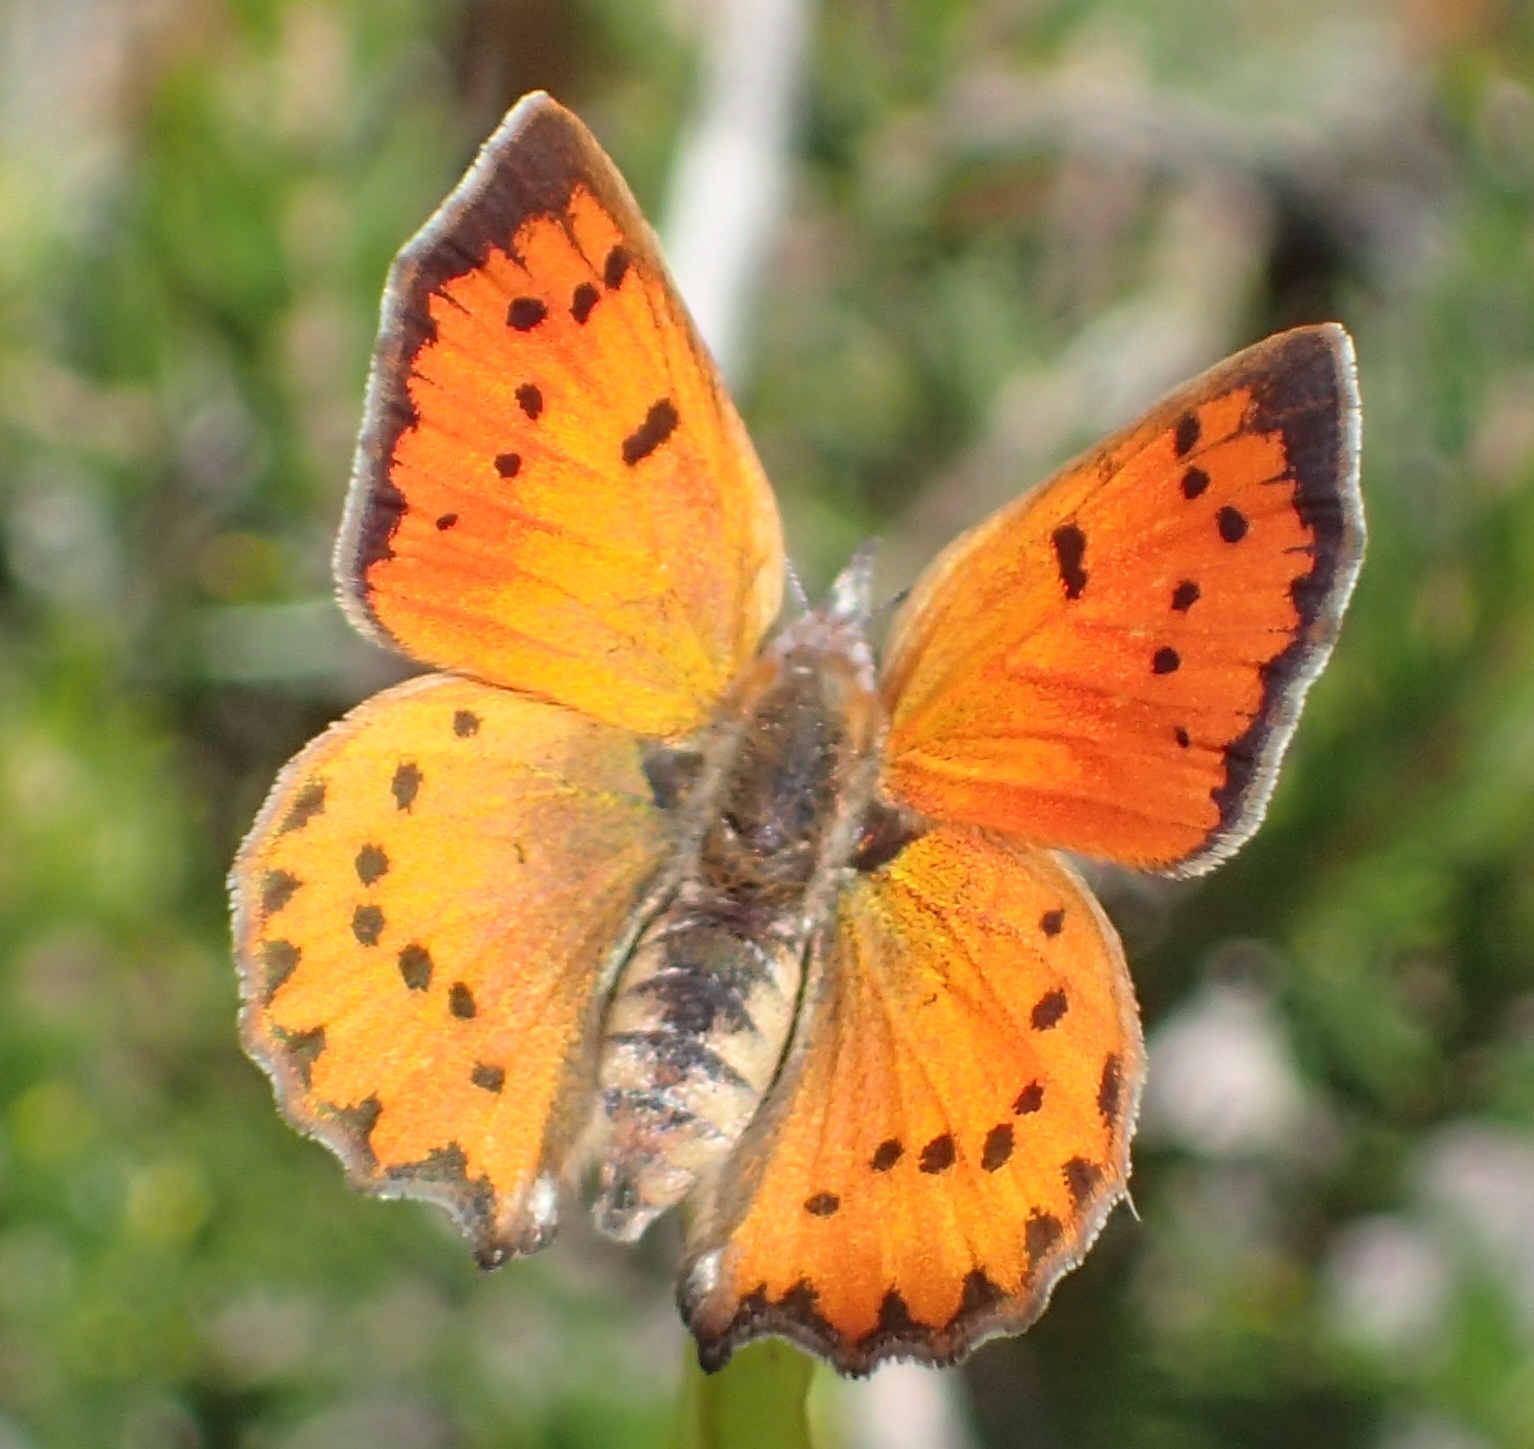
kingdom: Animalia
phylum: Arthropoda
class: Insecta
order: Lepidoptera
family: Lycaenidae
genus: Zeritis
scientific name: Zeritis chrysaor
